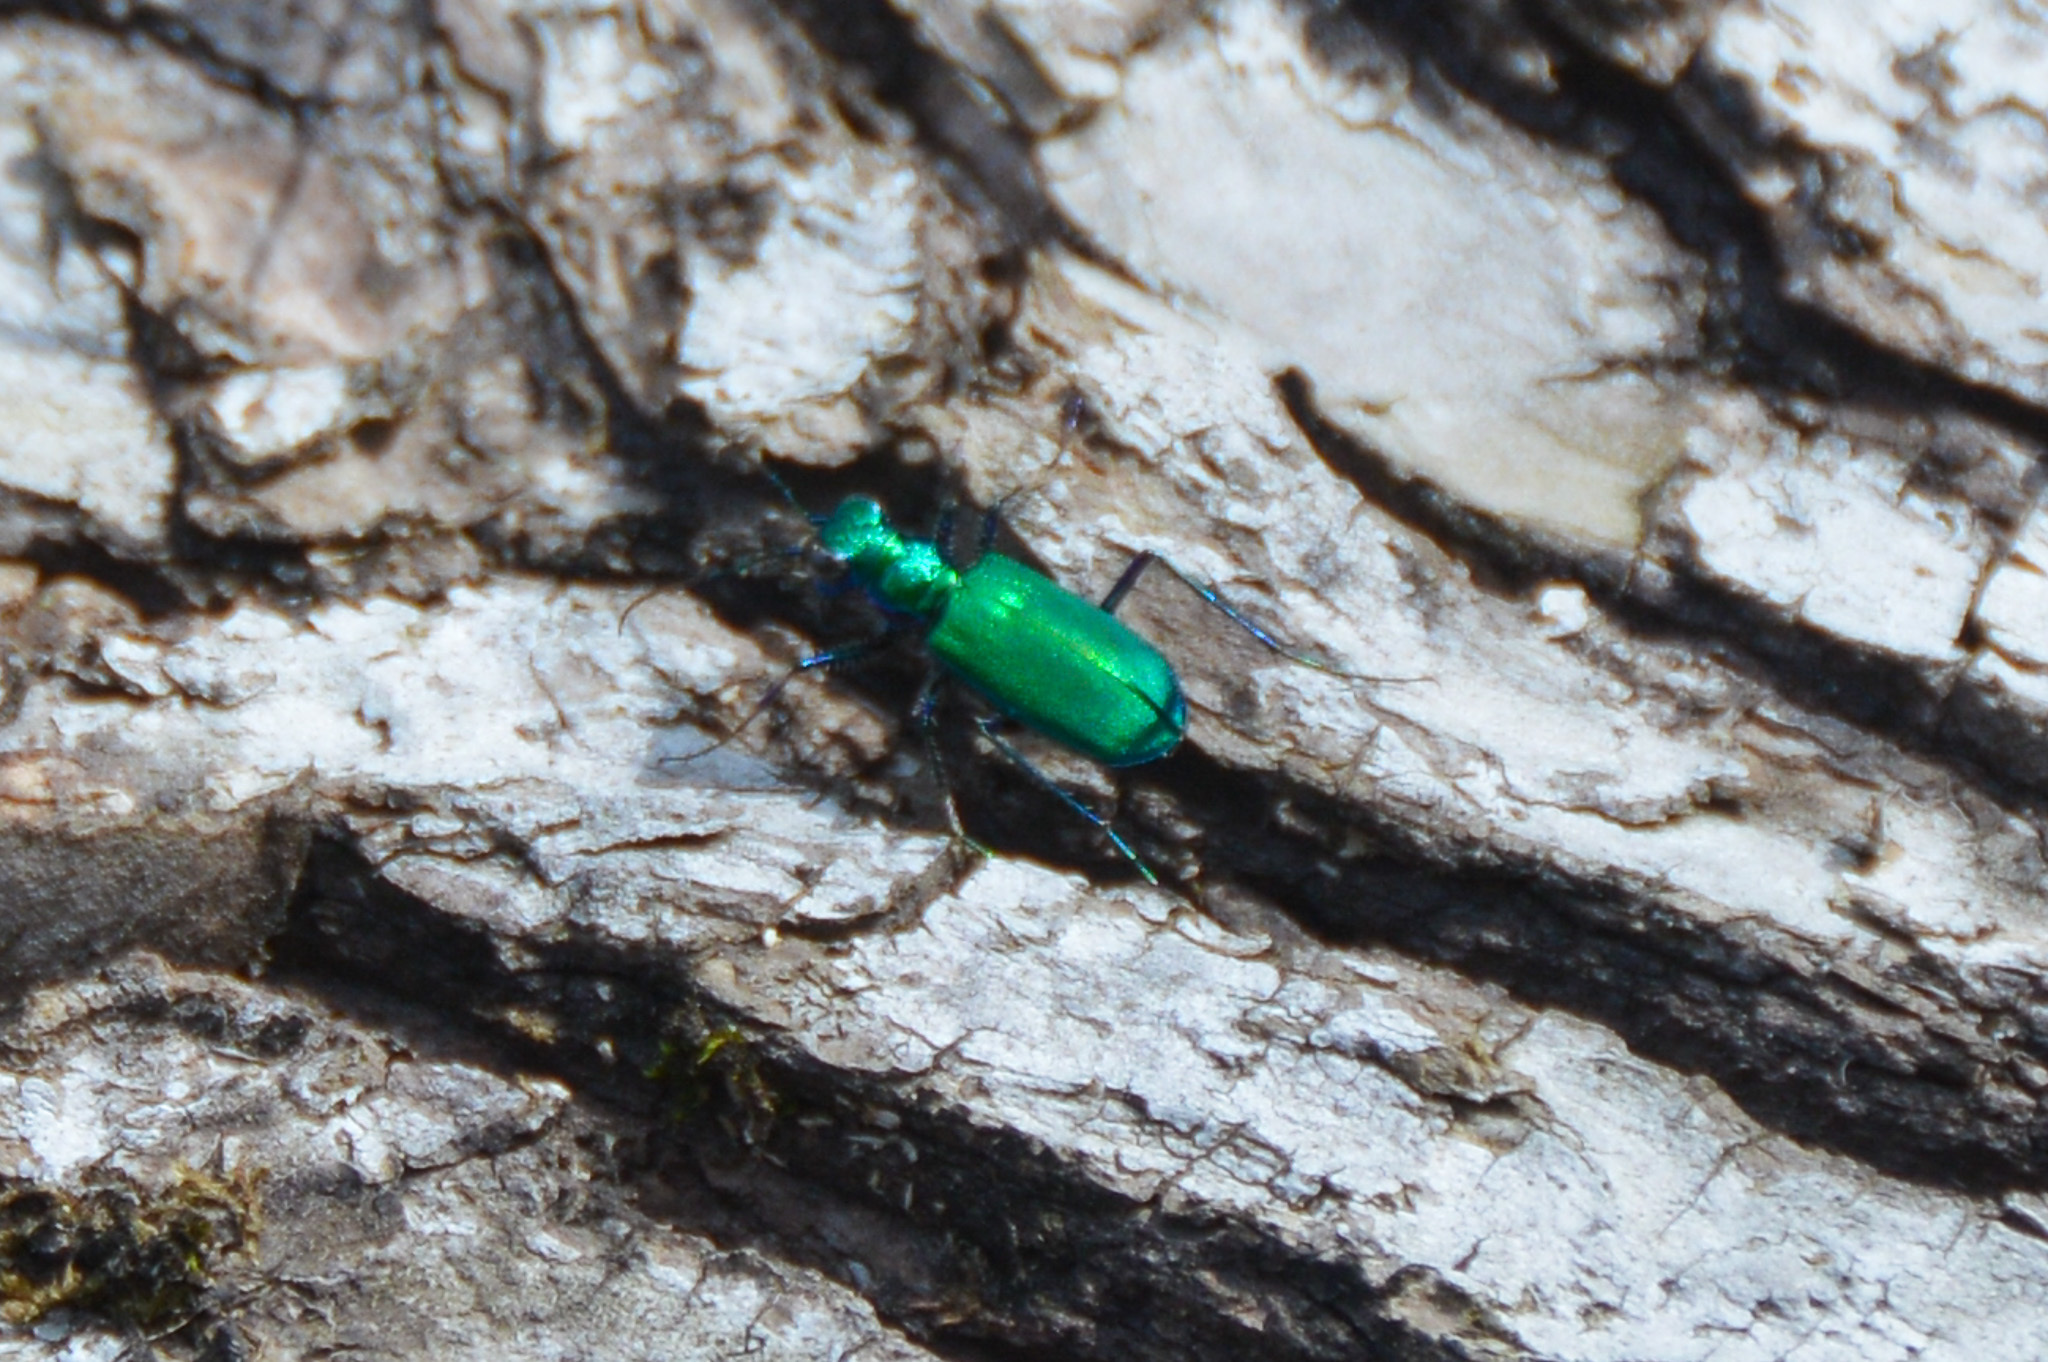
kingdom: Animalia
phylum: Arthropoda
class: Insecta
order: Coleoptera
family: Carabidae
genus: Cicindela
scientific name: Cicindela sexguttata
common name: Six-spotted tiger beetle
